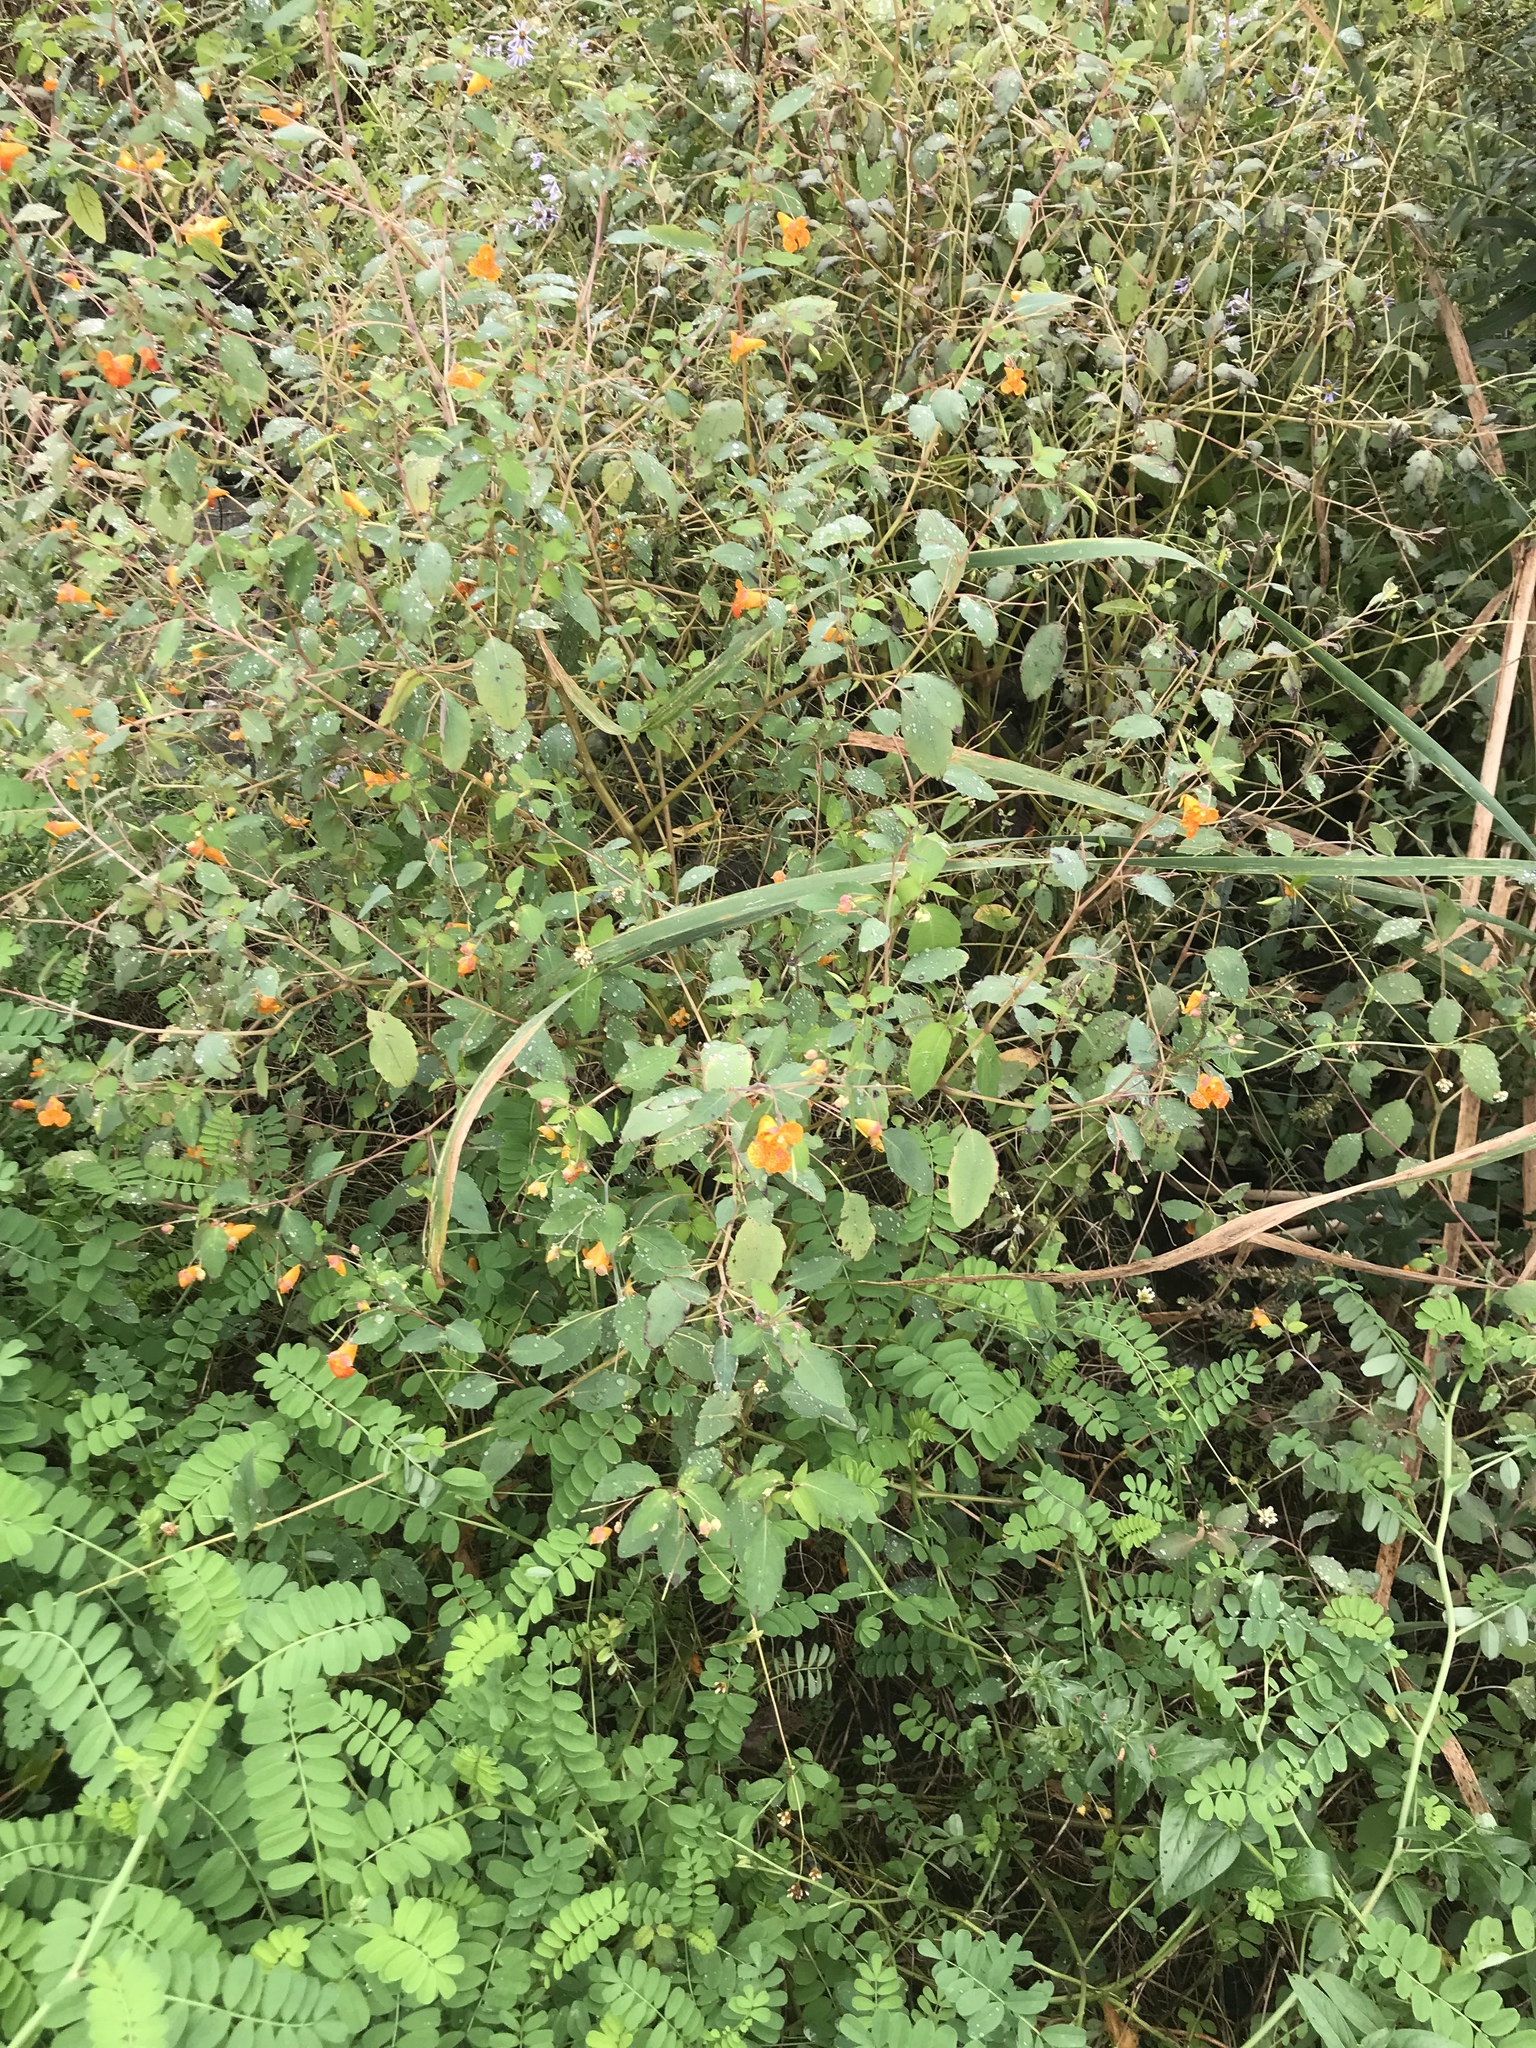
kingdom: Plantae
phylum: Tracheophyta
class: Magnoliopsida
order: Ericales
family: Balsaminaceae
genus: Impatiens
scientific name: Impatiens capensis
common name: Orange balsam
